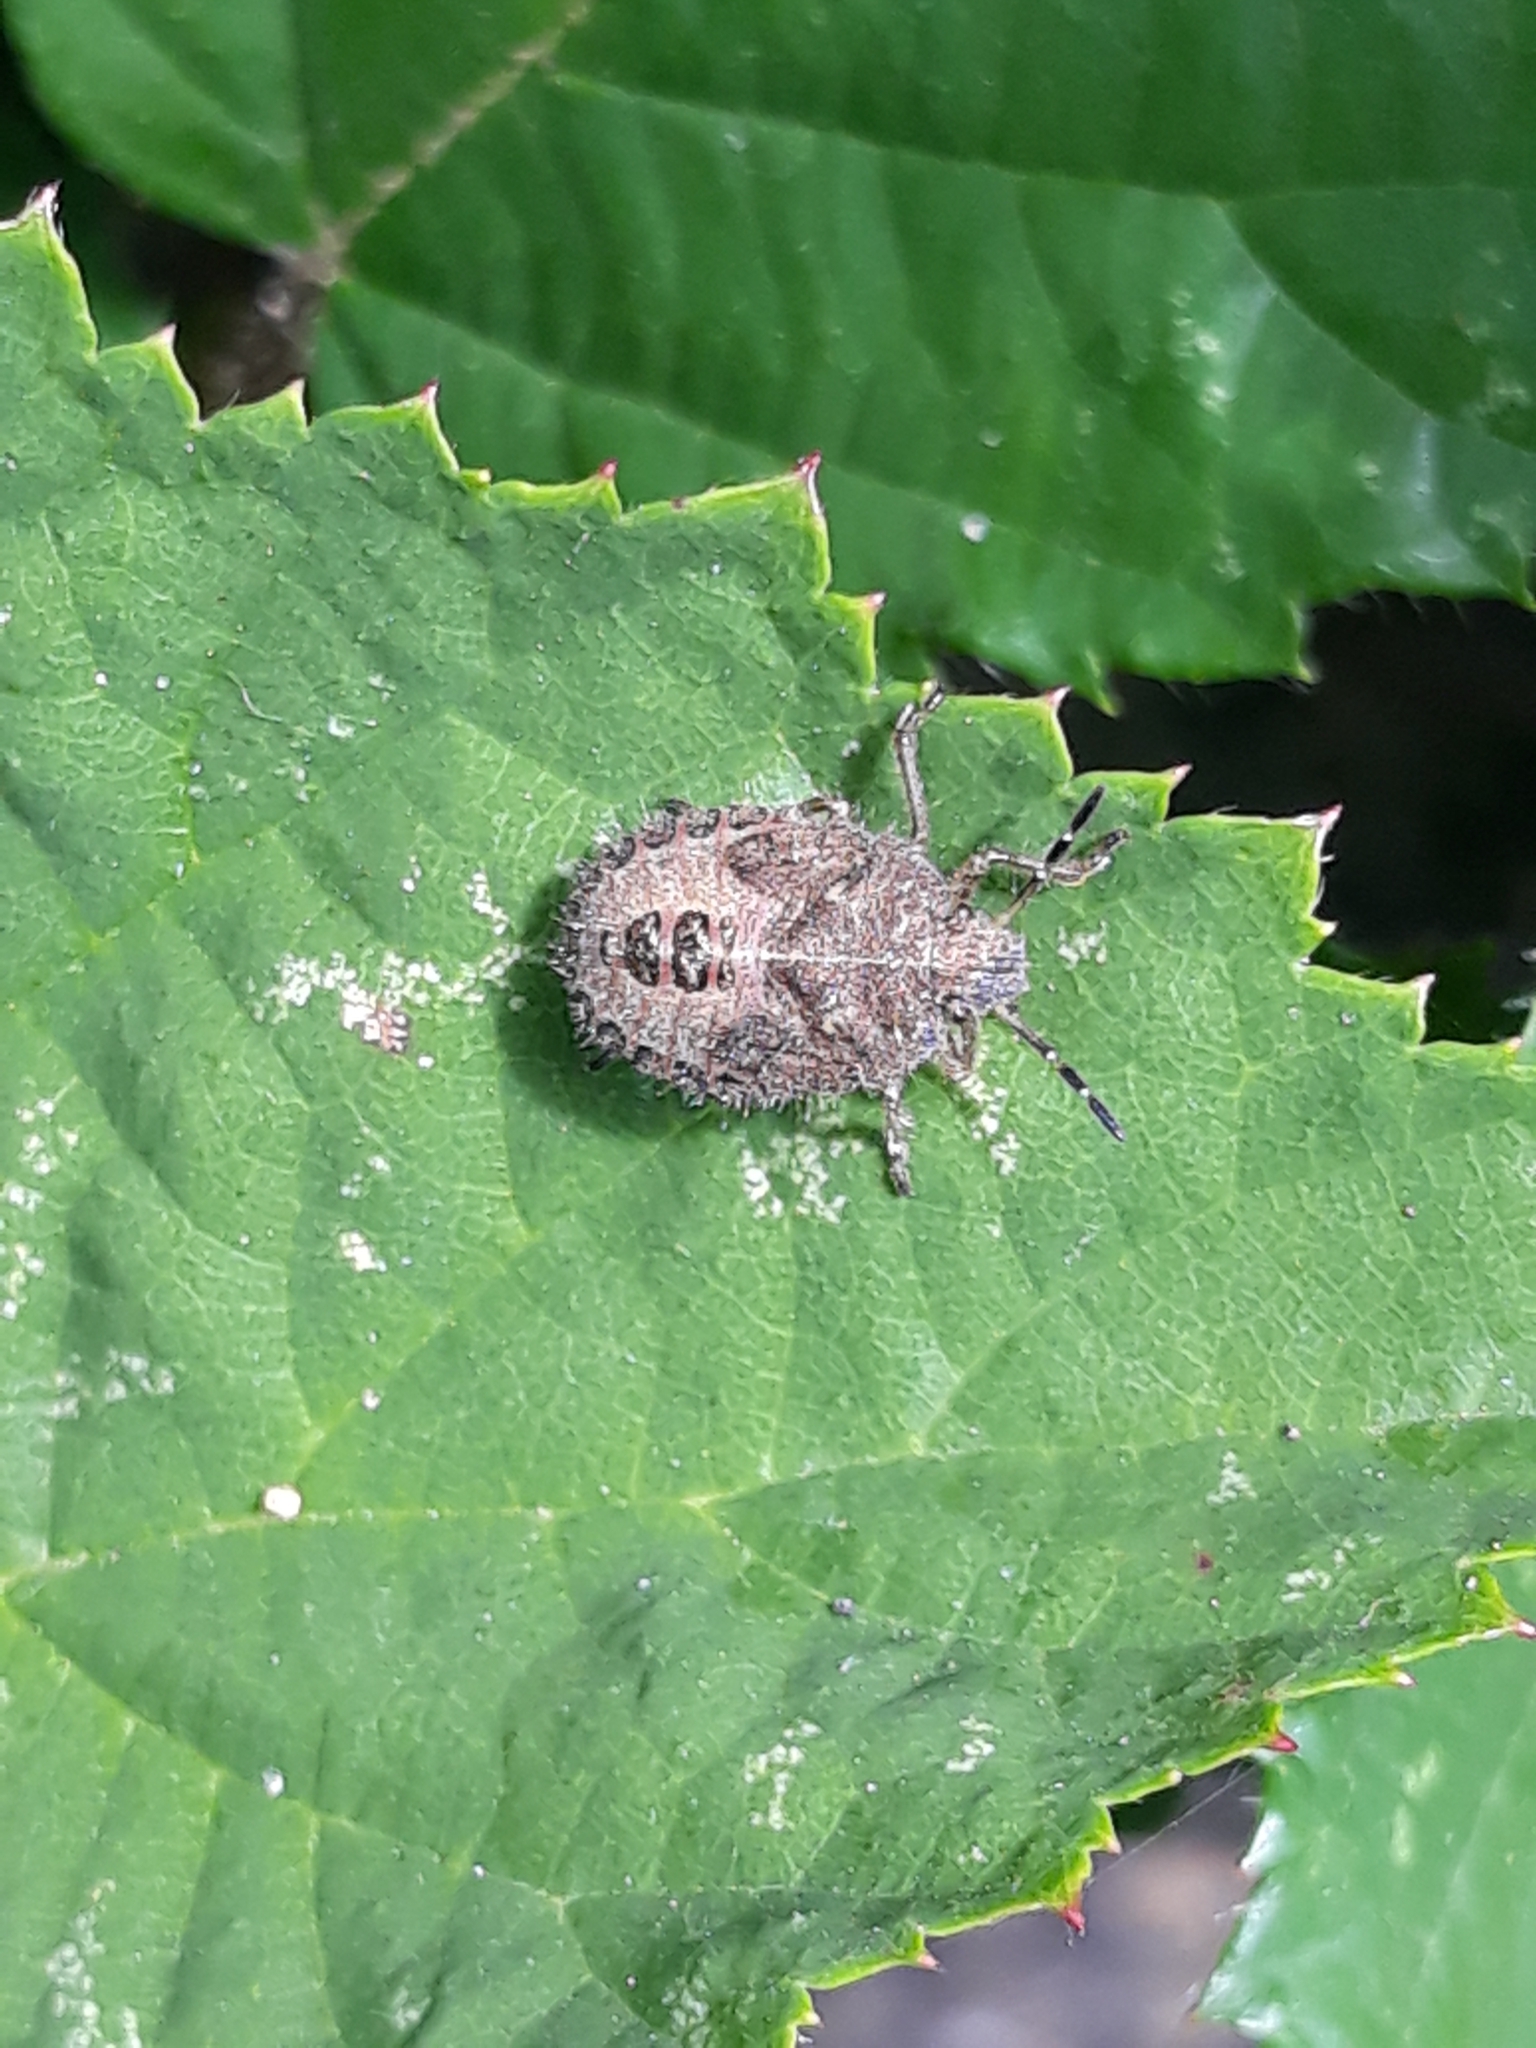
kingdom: Animalia
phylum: Arthropoda
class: Insecta
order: Hemiptera
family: Pentatomidae
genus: Dolycoris
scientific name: Dolycoris baccarum
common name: Sloe bug
